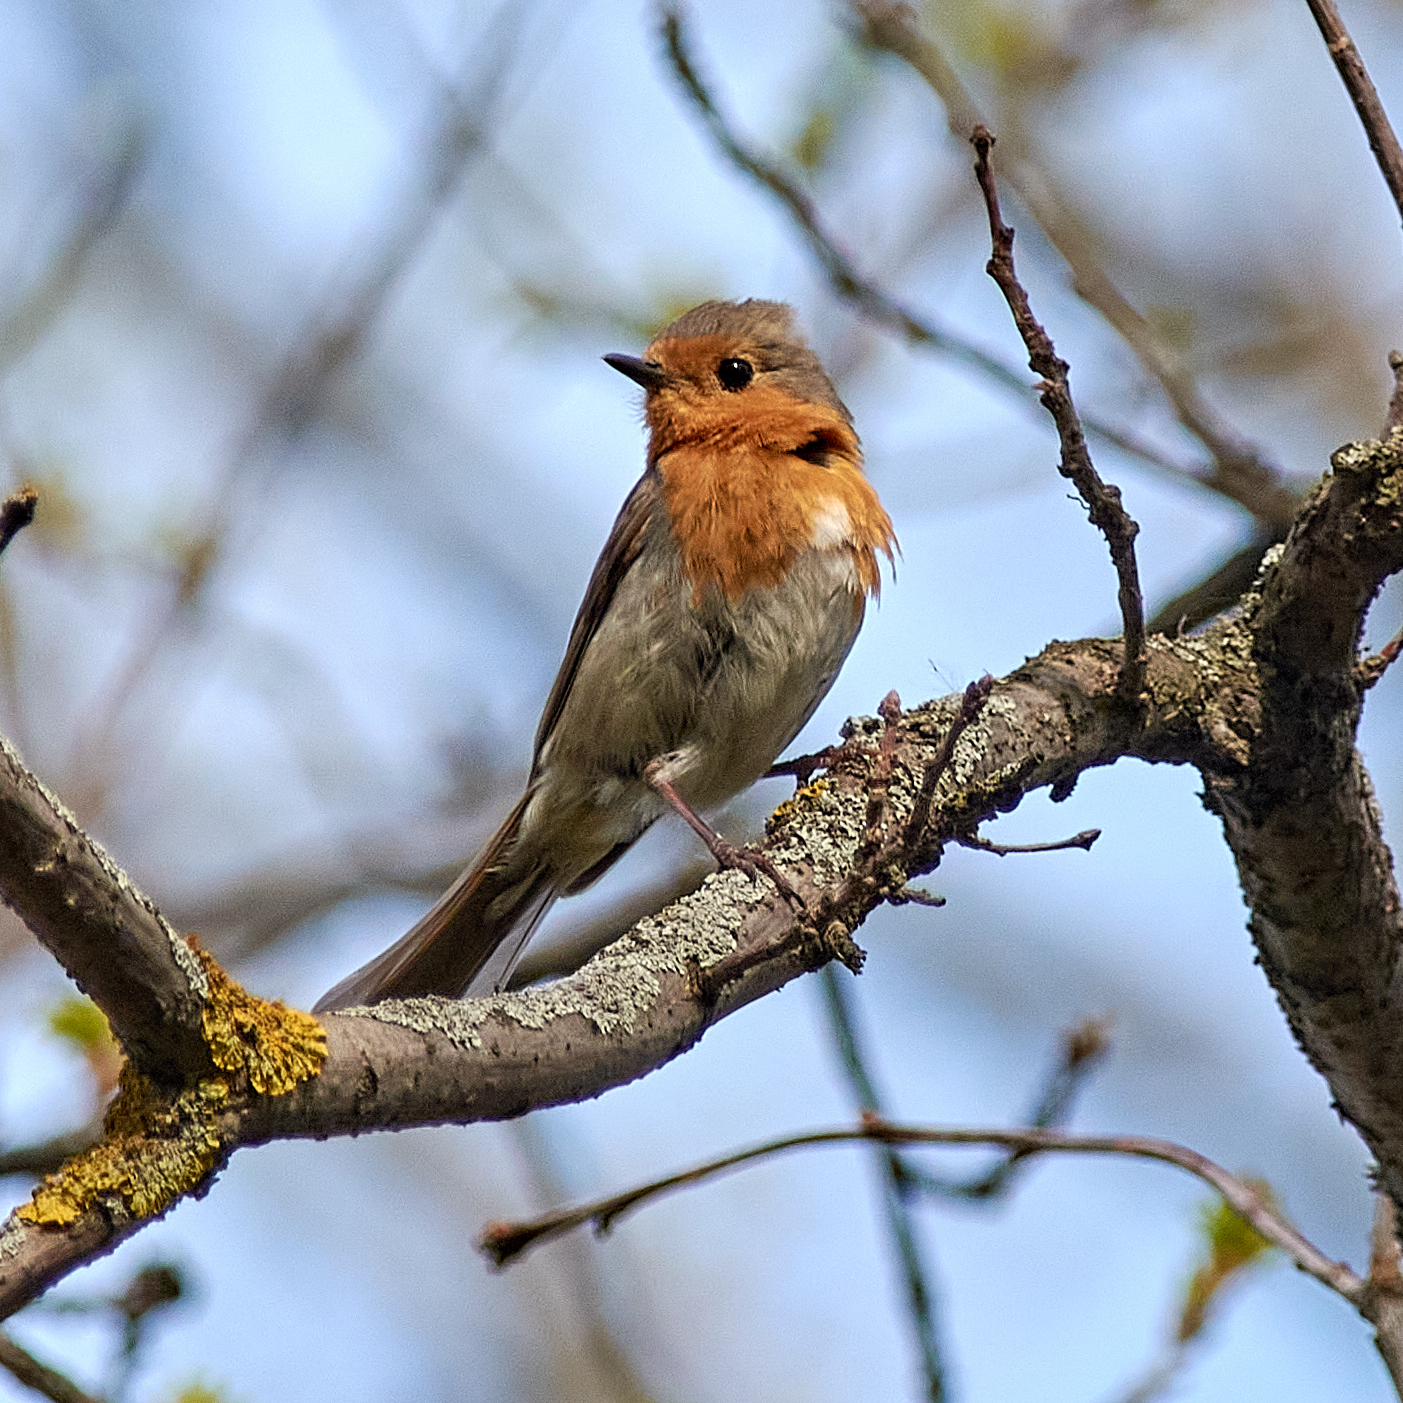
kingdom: Animalia
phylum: Chordata
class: Aves
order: Passeriformes
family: Muscicapidae
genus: Erithacus
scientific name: Erithacus rubecula
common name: European robin
